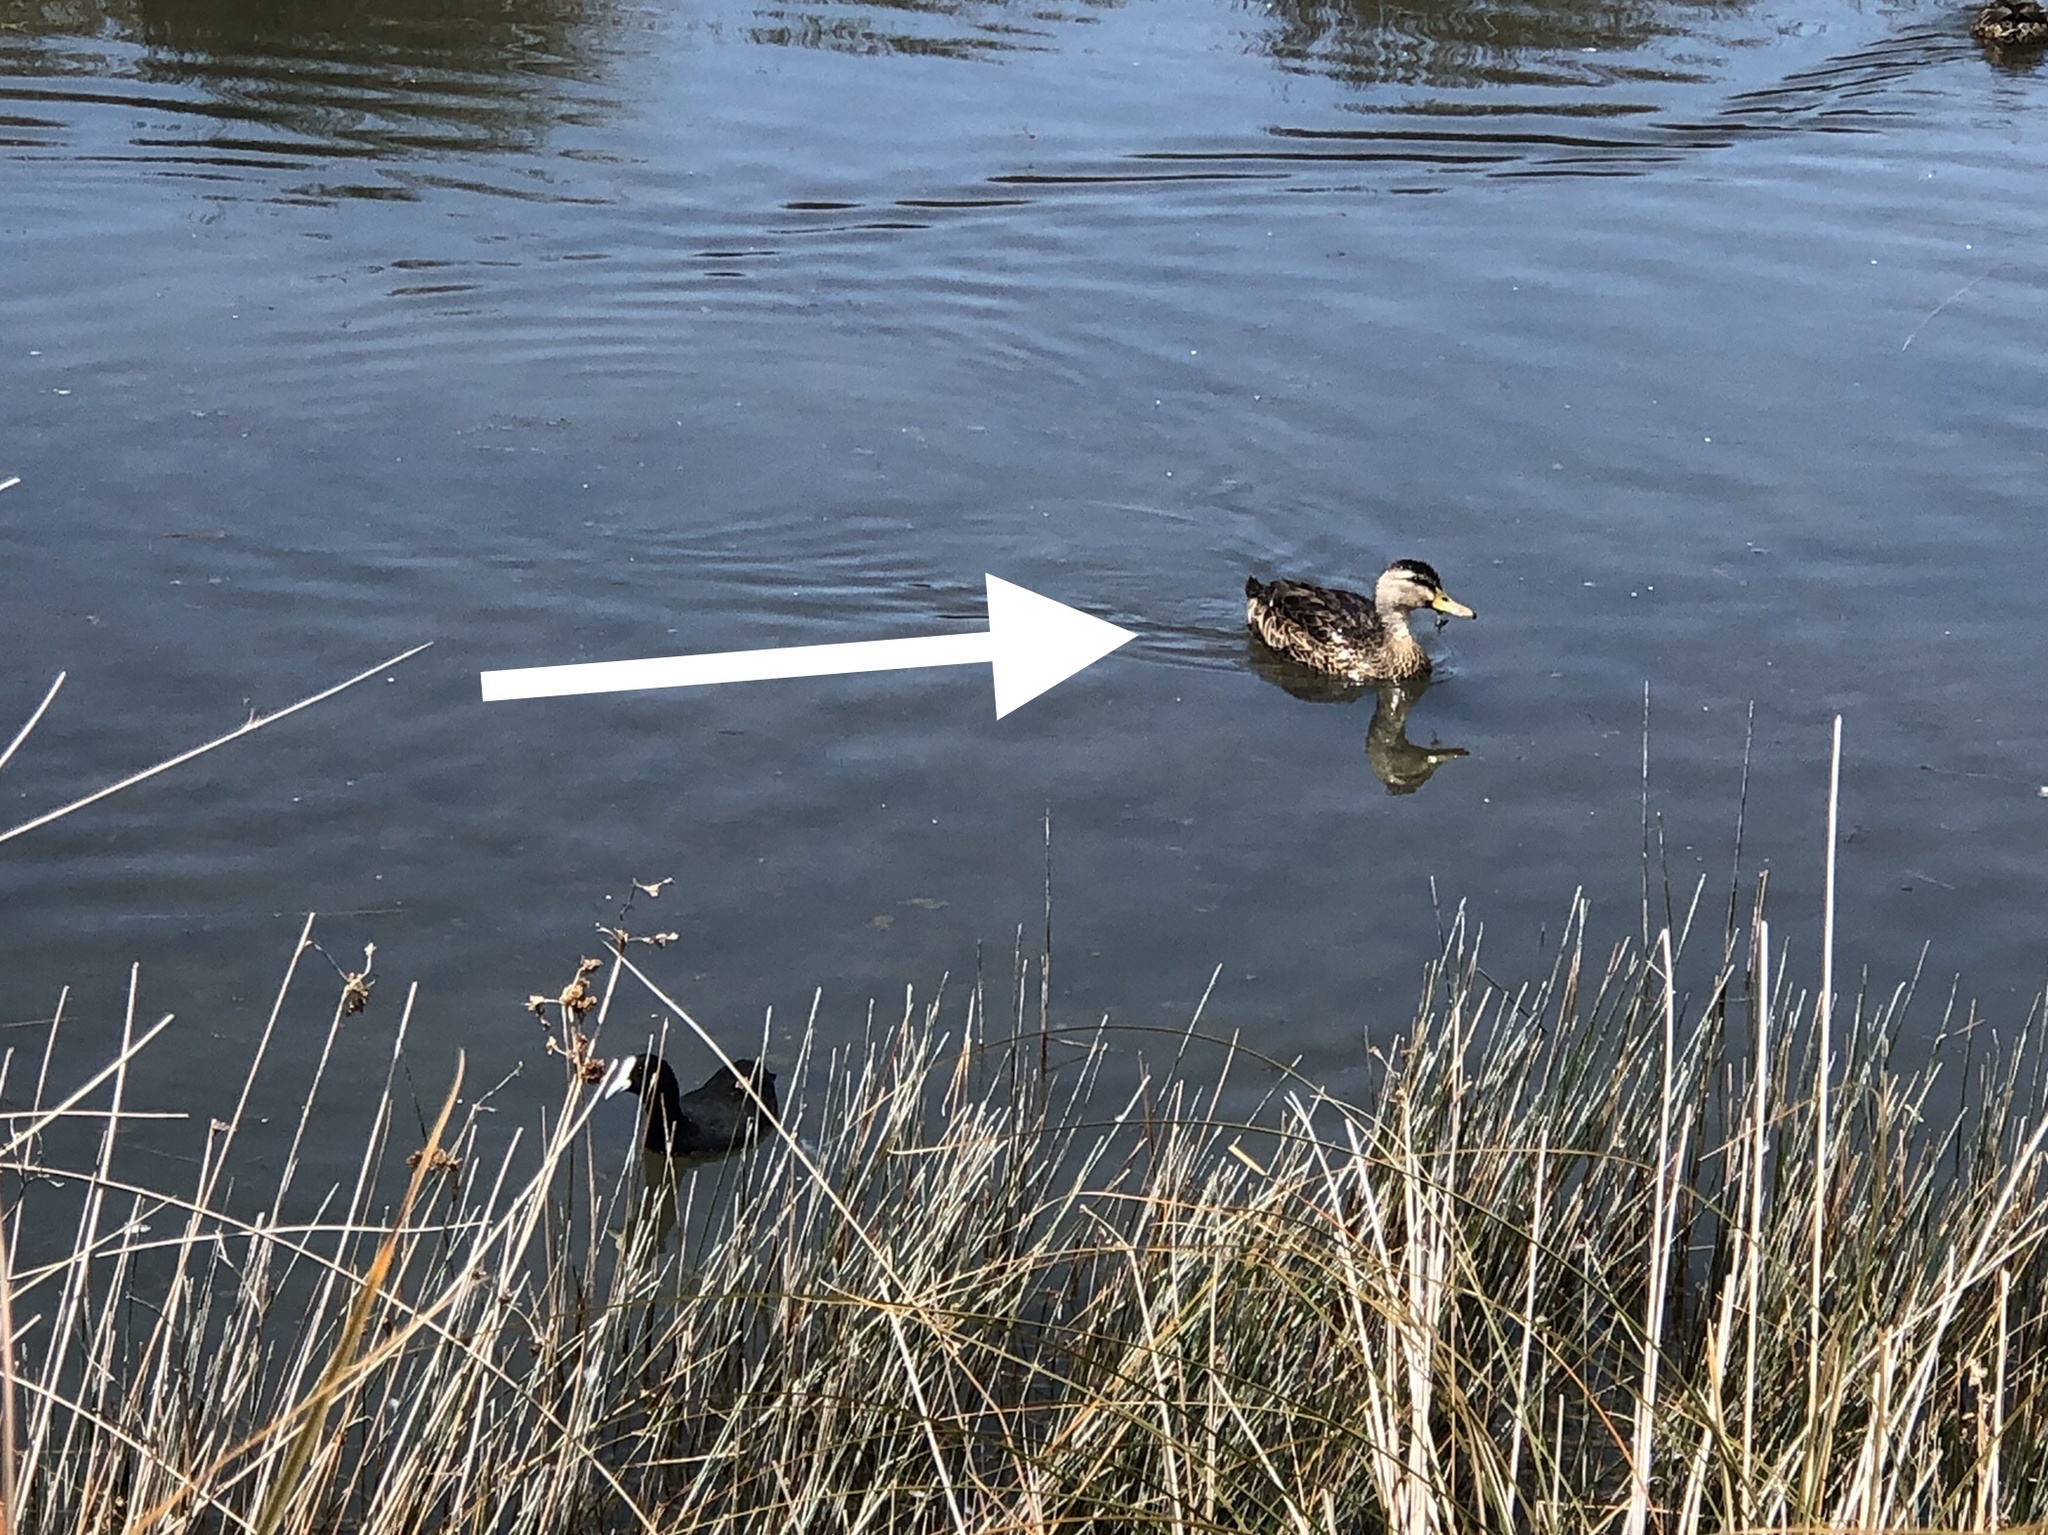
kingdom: Animalia
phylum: Chordata
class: Aves
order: Anseriformes
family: Anatidae
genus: Anas
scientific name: Anas
